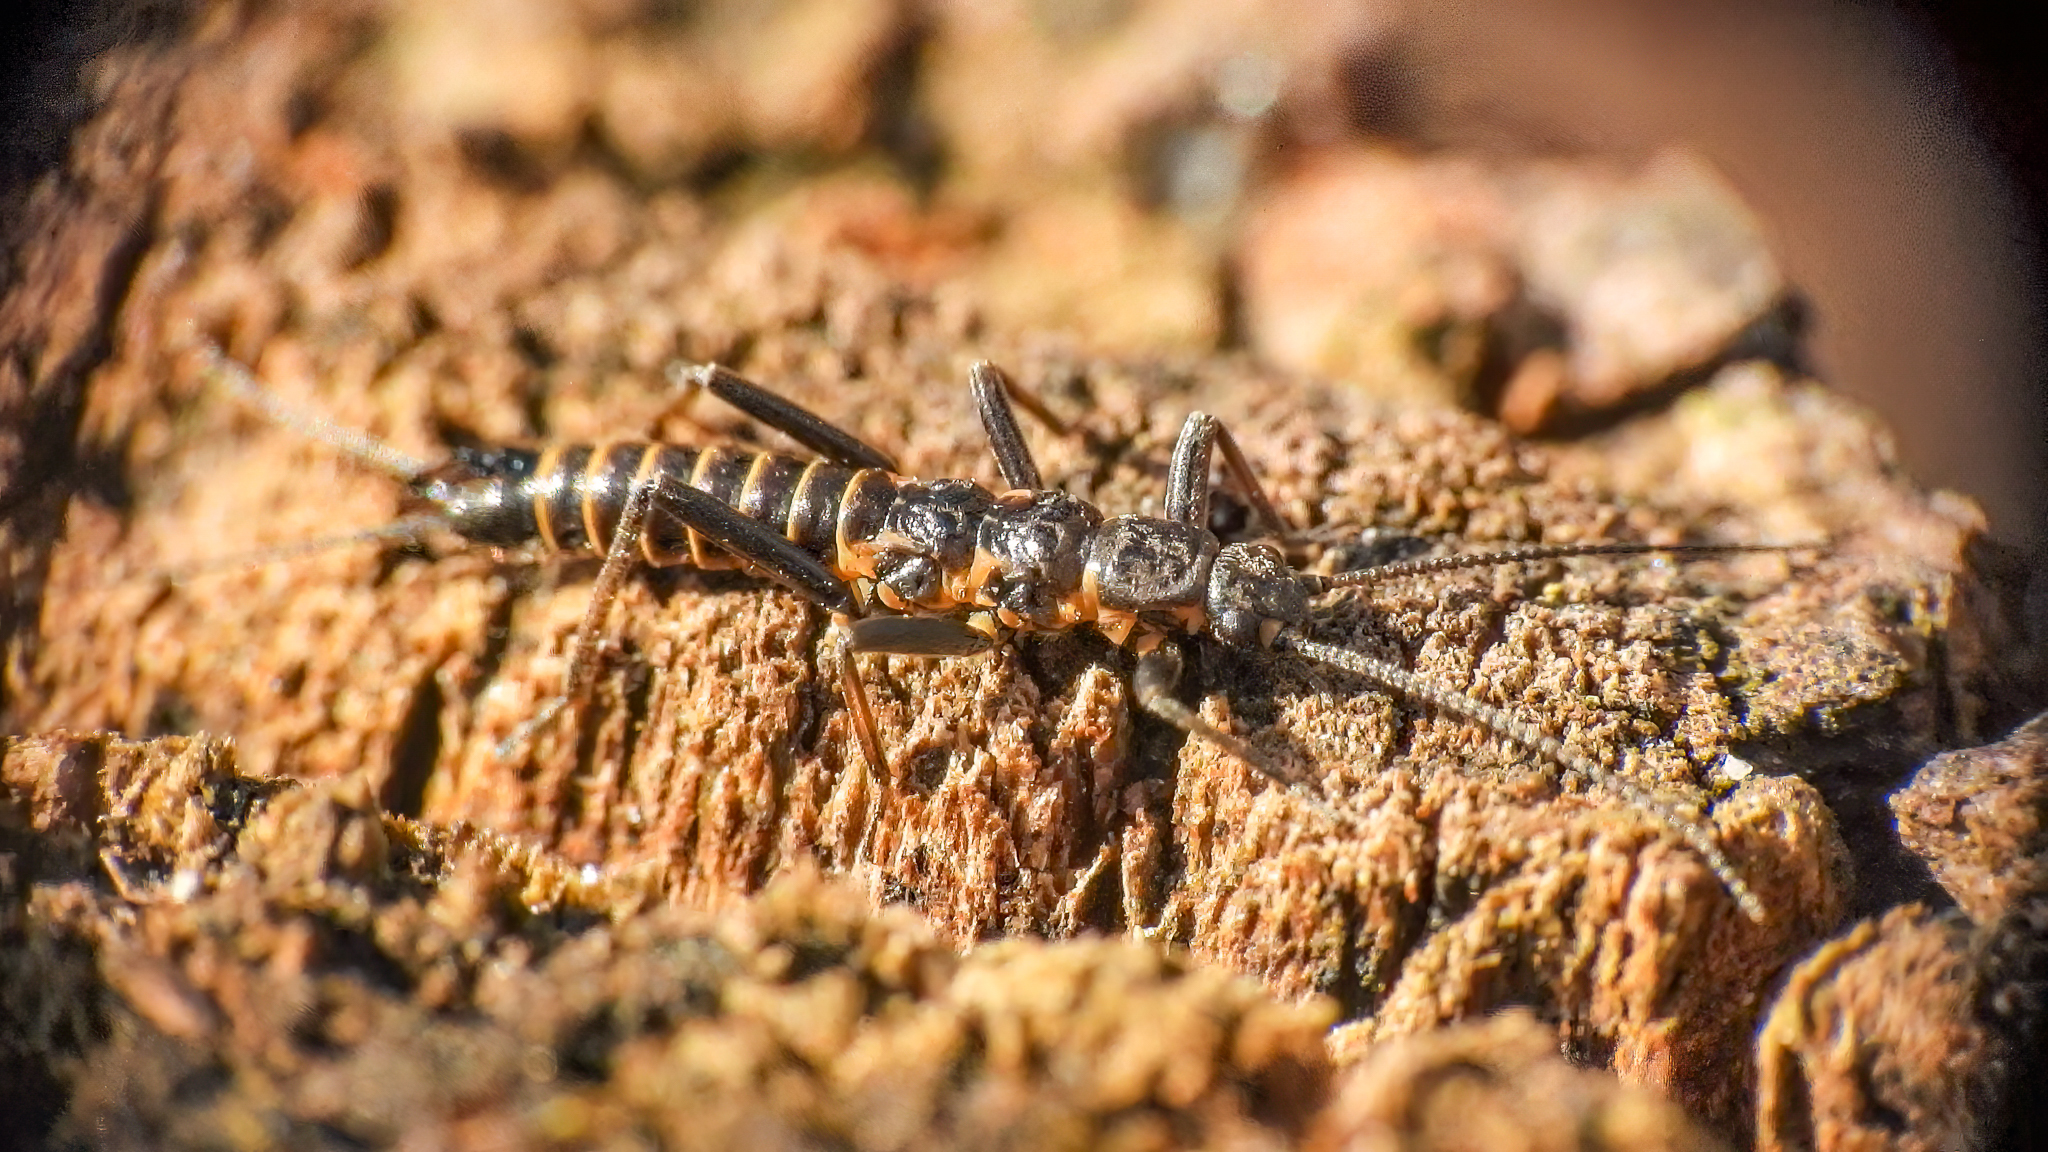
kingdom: Animalia
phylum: Arthropoda
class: Insecta
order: Plecoptera
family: Capniidae
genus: Allocapnia
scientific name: Allocapnia vivipara
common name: Shortwing snowfly
